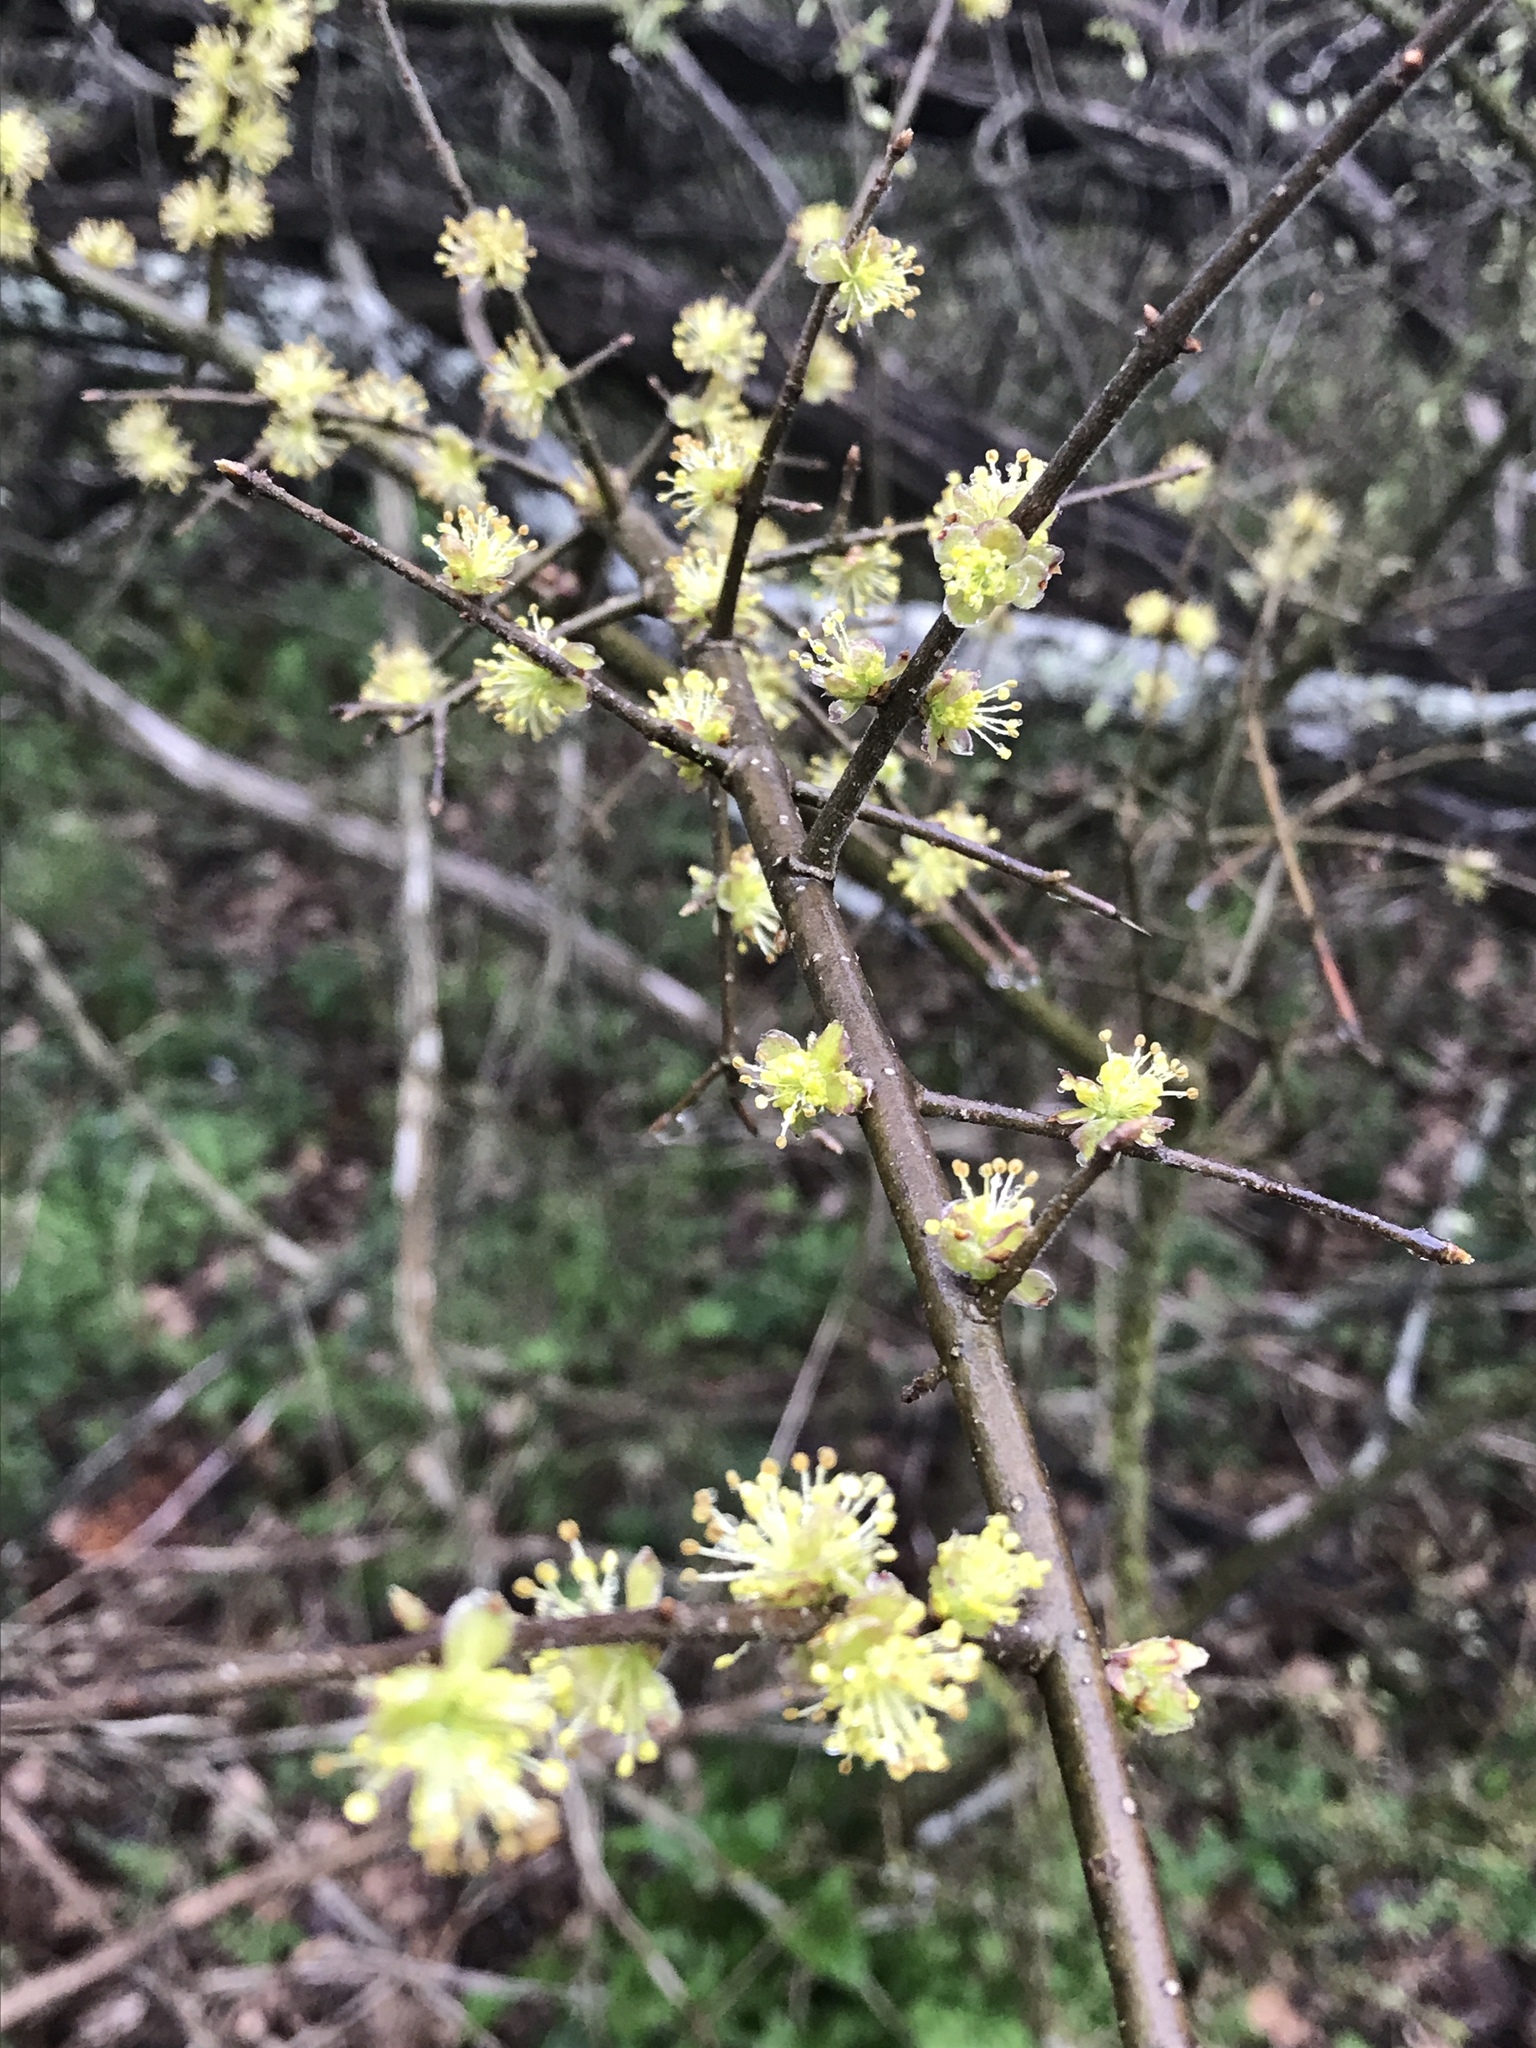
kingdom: Plantae
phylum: Tracheophyta
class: Magnoliopsida
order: Lamiales
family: Oleaceae
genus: Forestiera
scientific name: Forestiera pubescens
